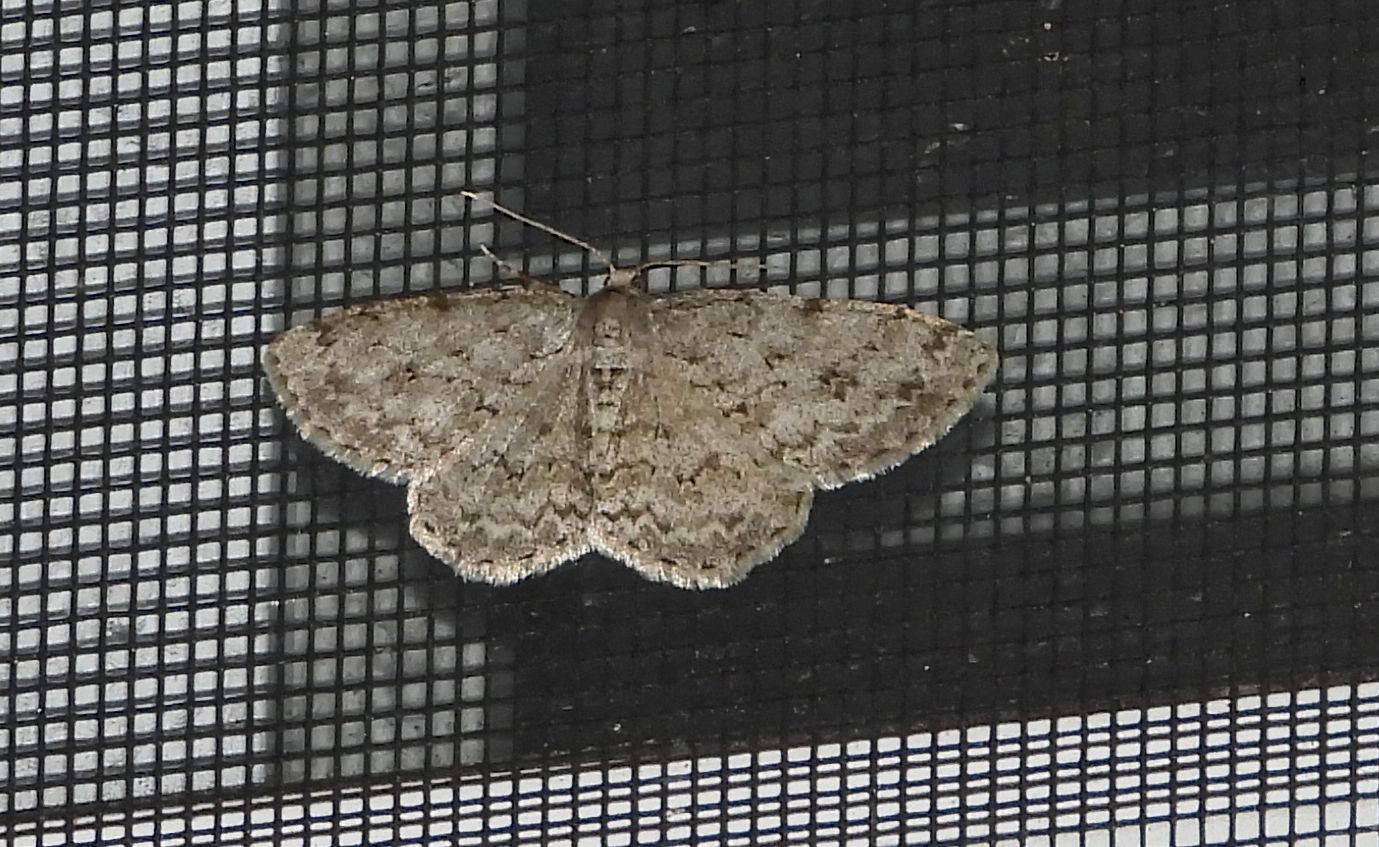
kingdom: Animalia
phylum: Arthropoda
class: Insecta
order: Lepidoptera
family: Geometridae
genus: Ectropis
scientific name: Ectropis crepuscularia
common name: Engrailed
